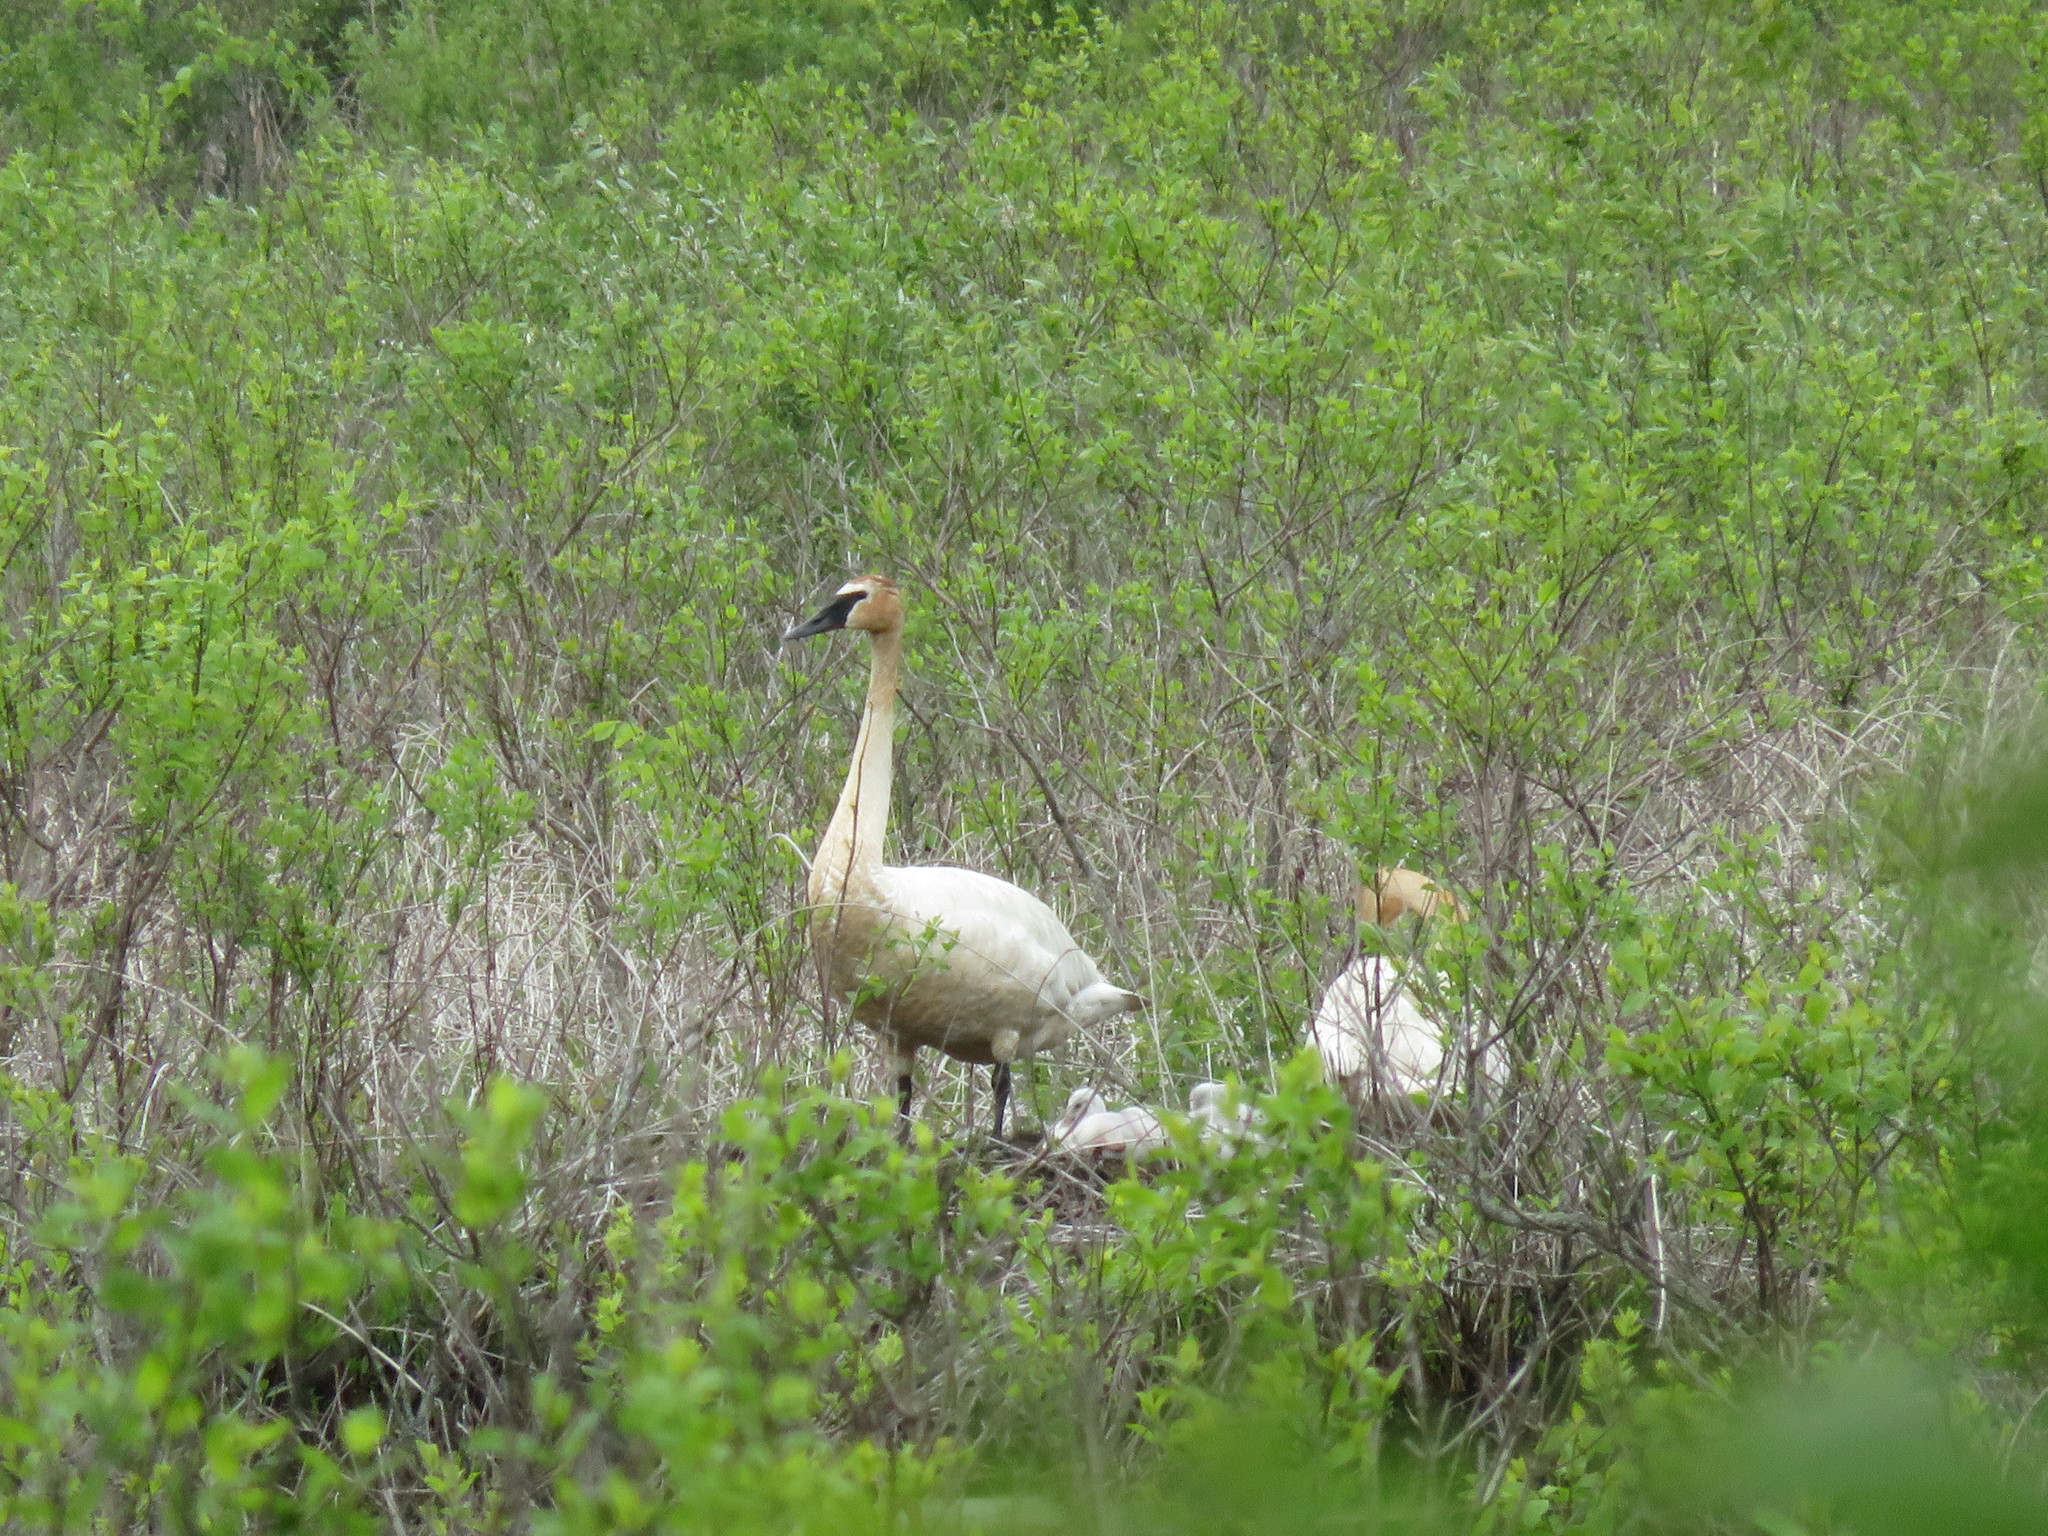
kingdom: Animalia
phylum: Chordata
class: Aves
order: Anseriformes
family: Anatidae
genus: Cygnus
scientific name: Cygnus buccinator
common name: Trumpeter swan
